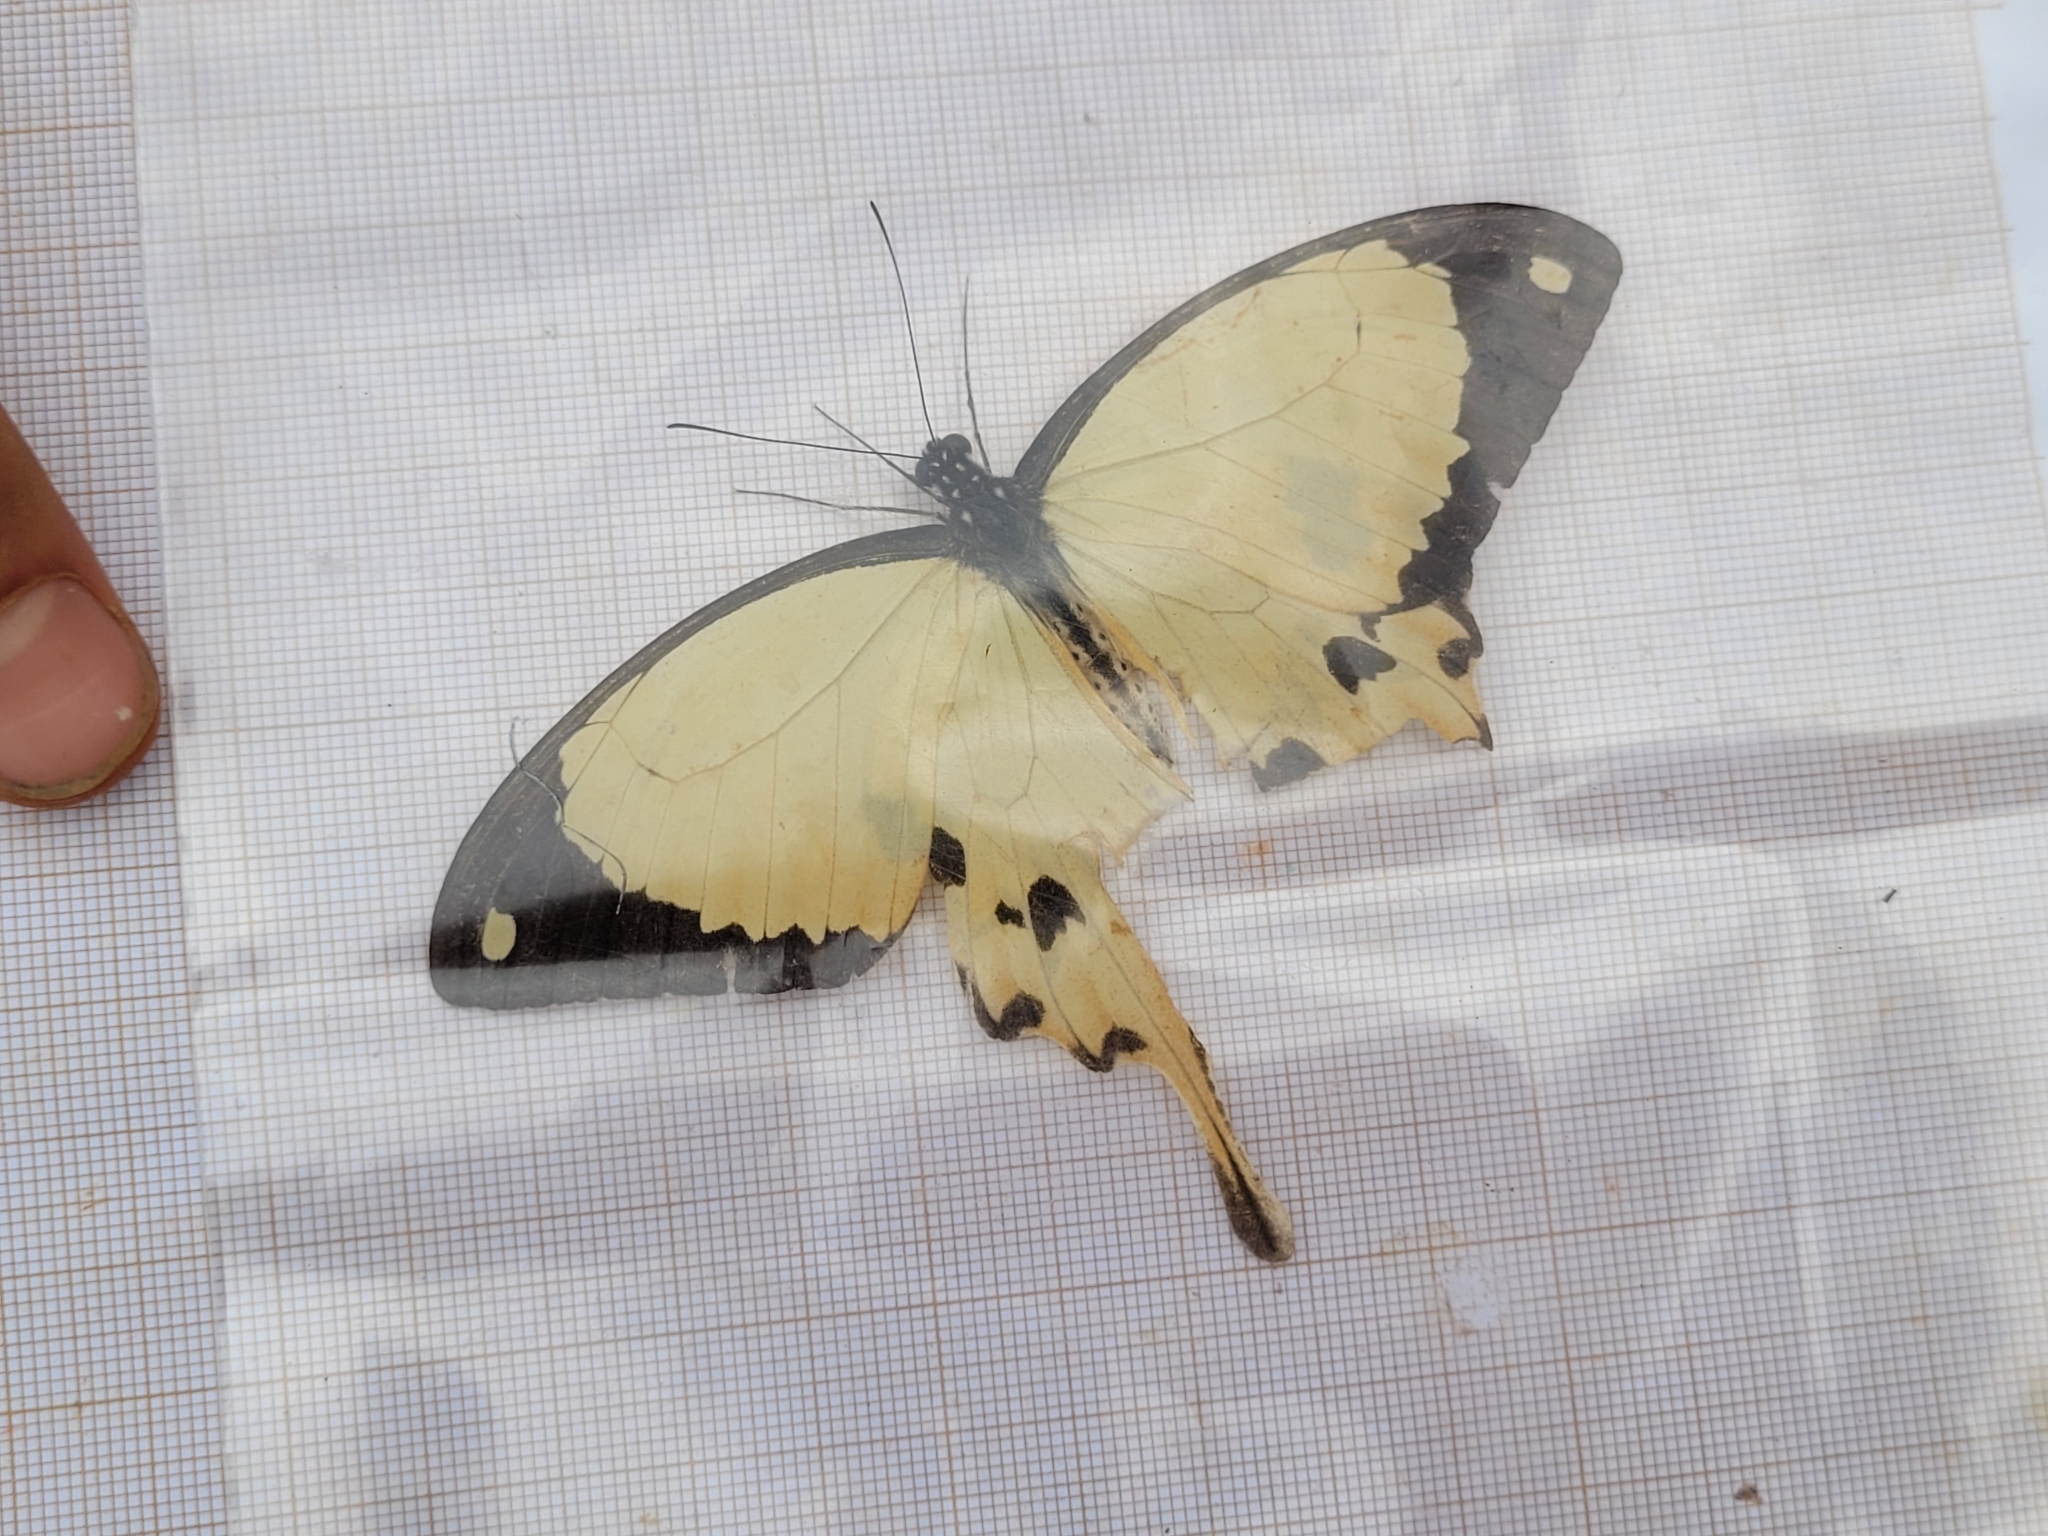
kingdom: Animalia
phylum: Arthropoda
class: Insecta
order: Lepidoptera
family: Papilionidae
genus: Papilio
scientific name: Papilio dardanus
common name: Flying handkerchief
